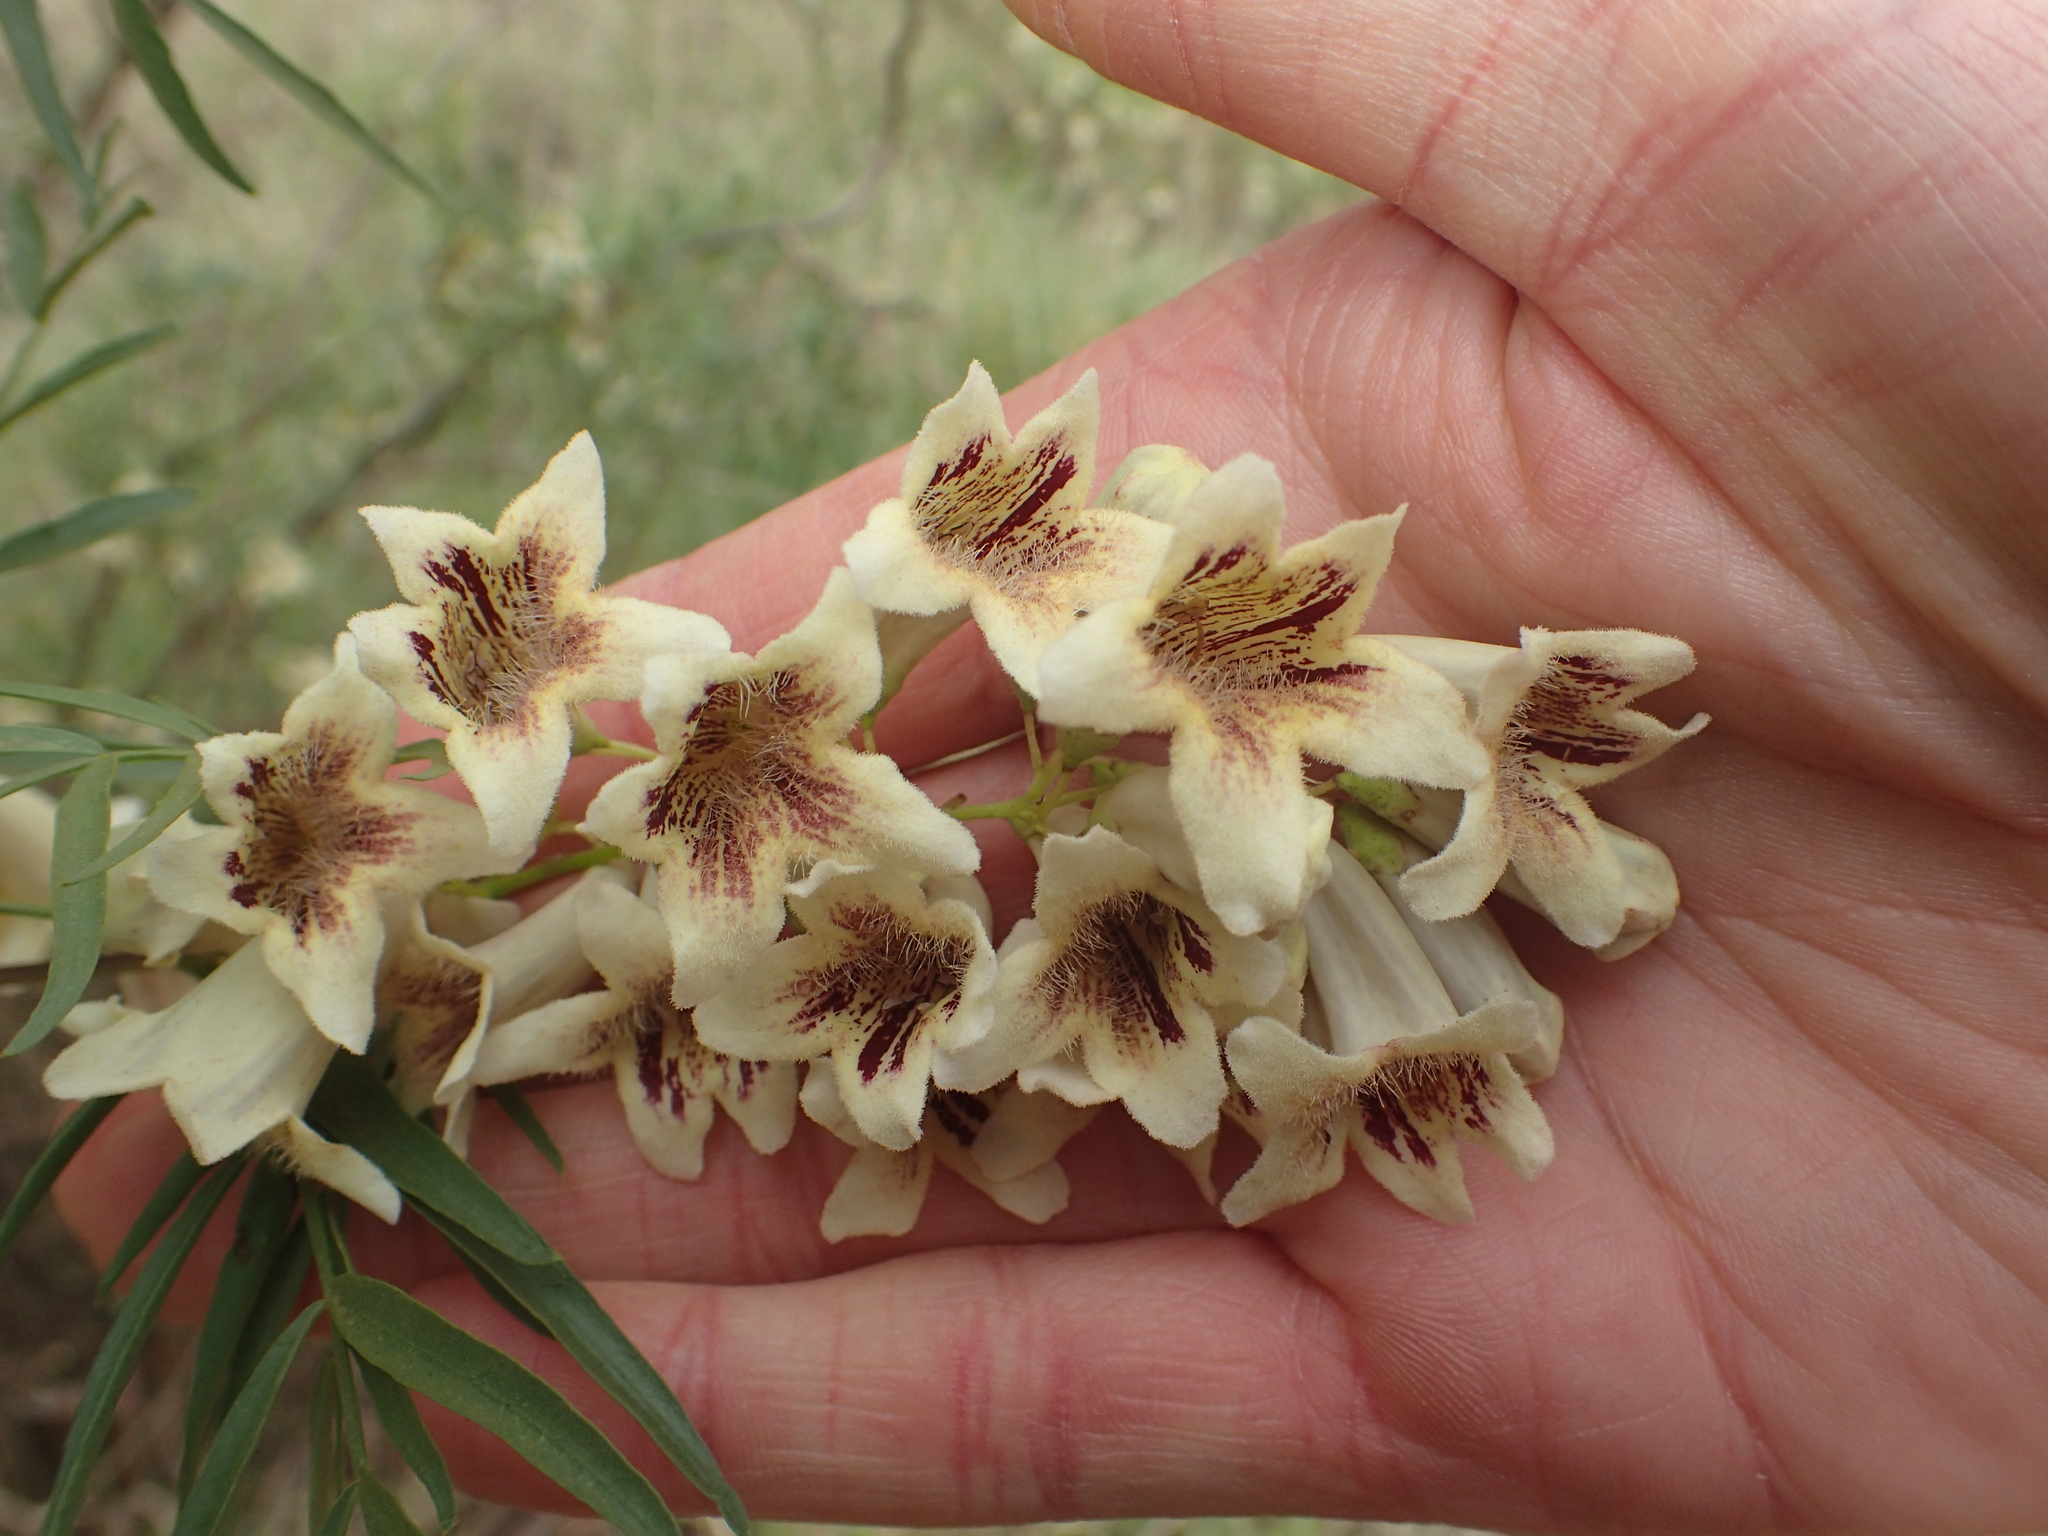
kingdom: Plantae
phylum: Tracheophyta
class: Magnoliopsida
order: Lamiales
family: Bignoniaceae
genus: Pandorea
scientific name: Pandorea doratoxylon
